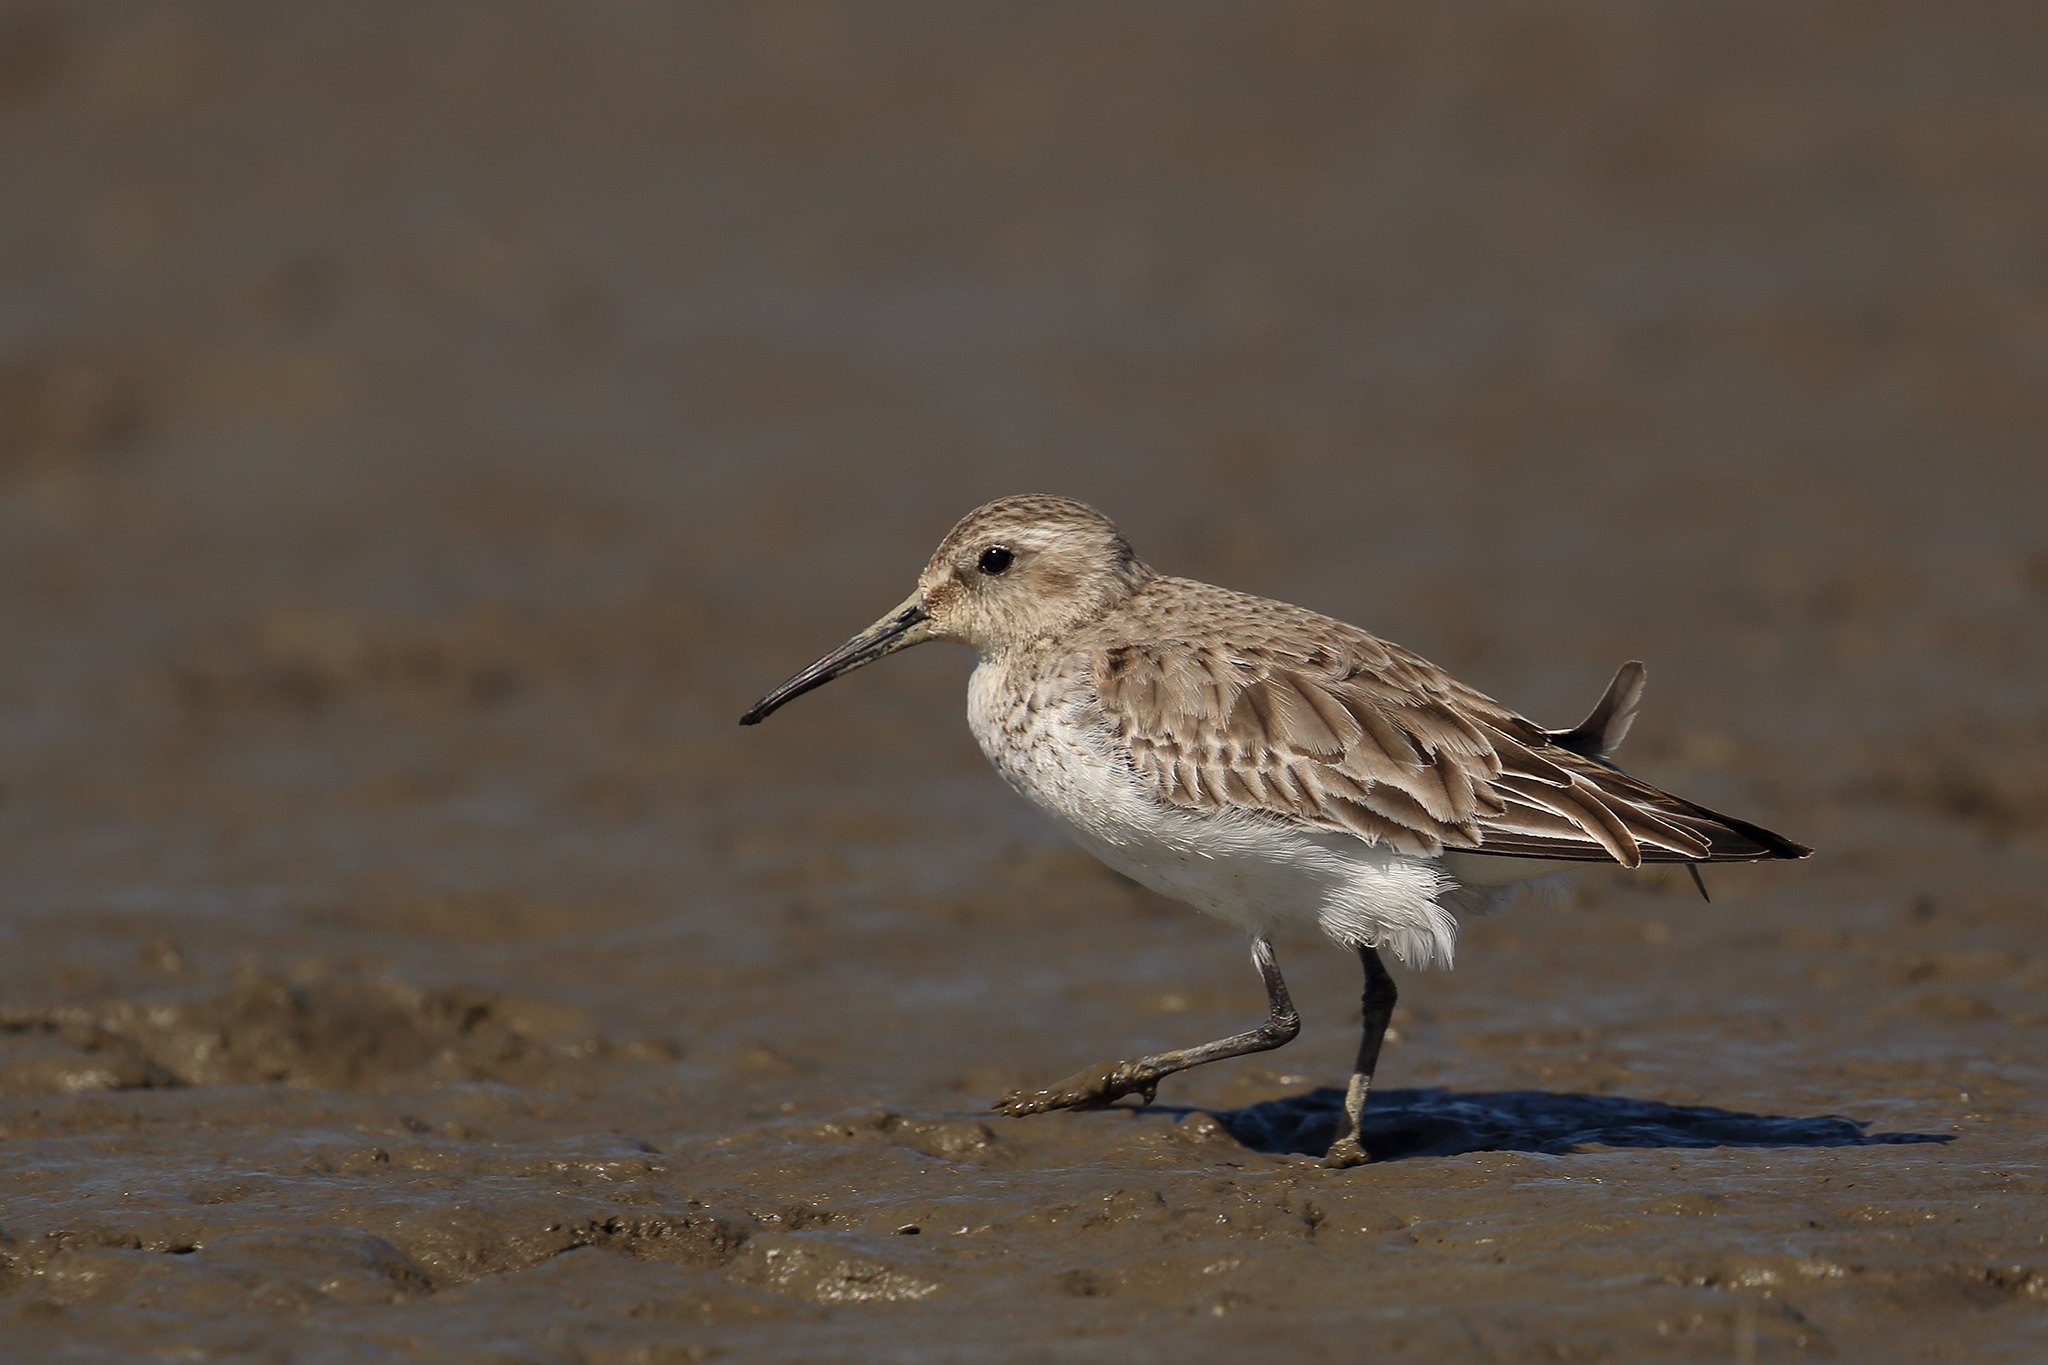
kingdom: Animalia
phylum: Chordata
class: Aves
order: Charadriiformes
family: Scolopacidae
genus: Calidris
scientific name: Calidris alpina
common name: Dunlin
